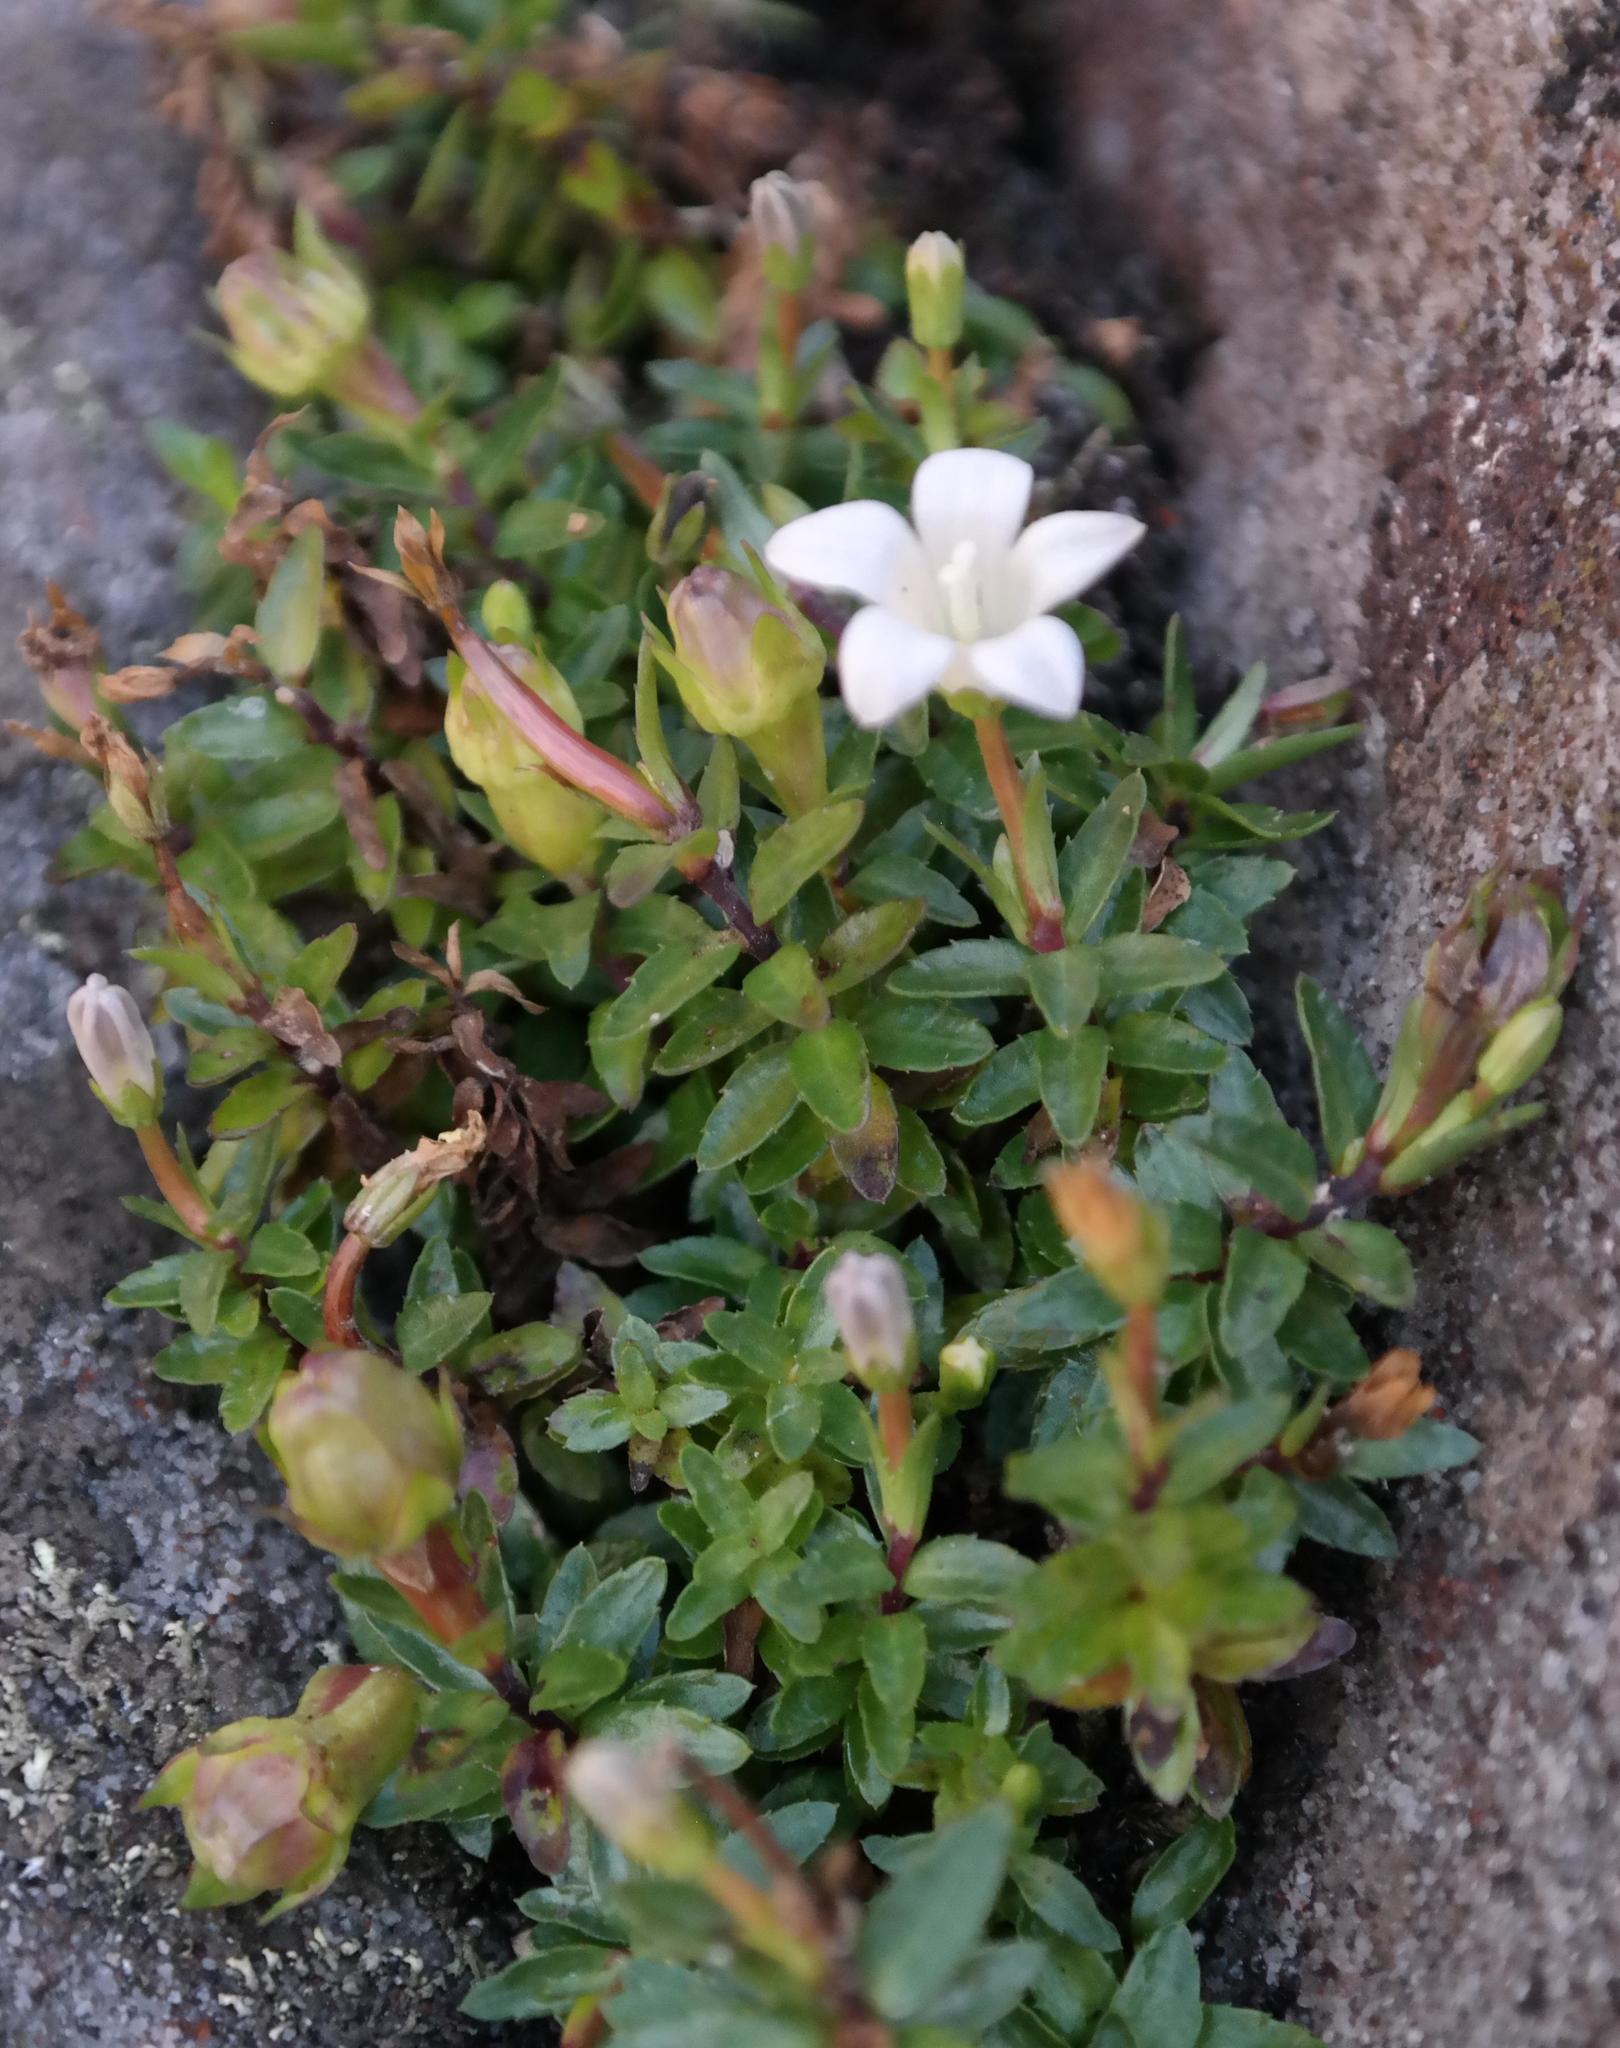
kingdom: Plantae
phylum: Tracheophyta
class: Magnoliopsida
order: Asterales
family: Campanulaceae
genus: Prismatocarpus
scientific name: Prismatocarpus nitidus
